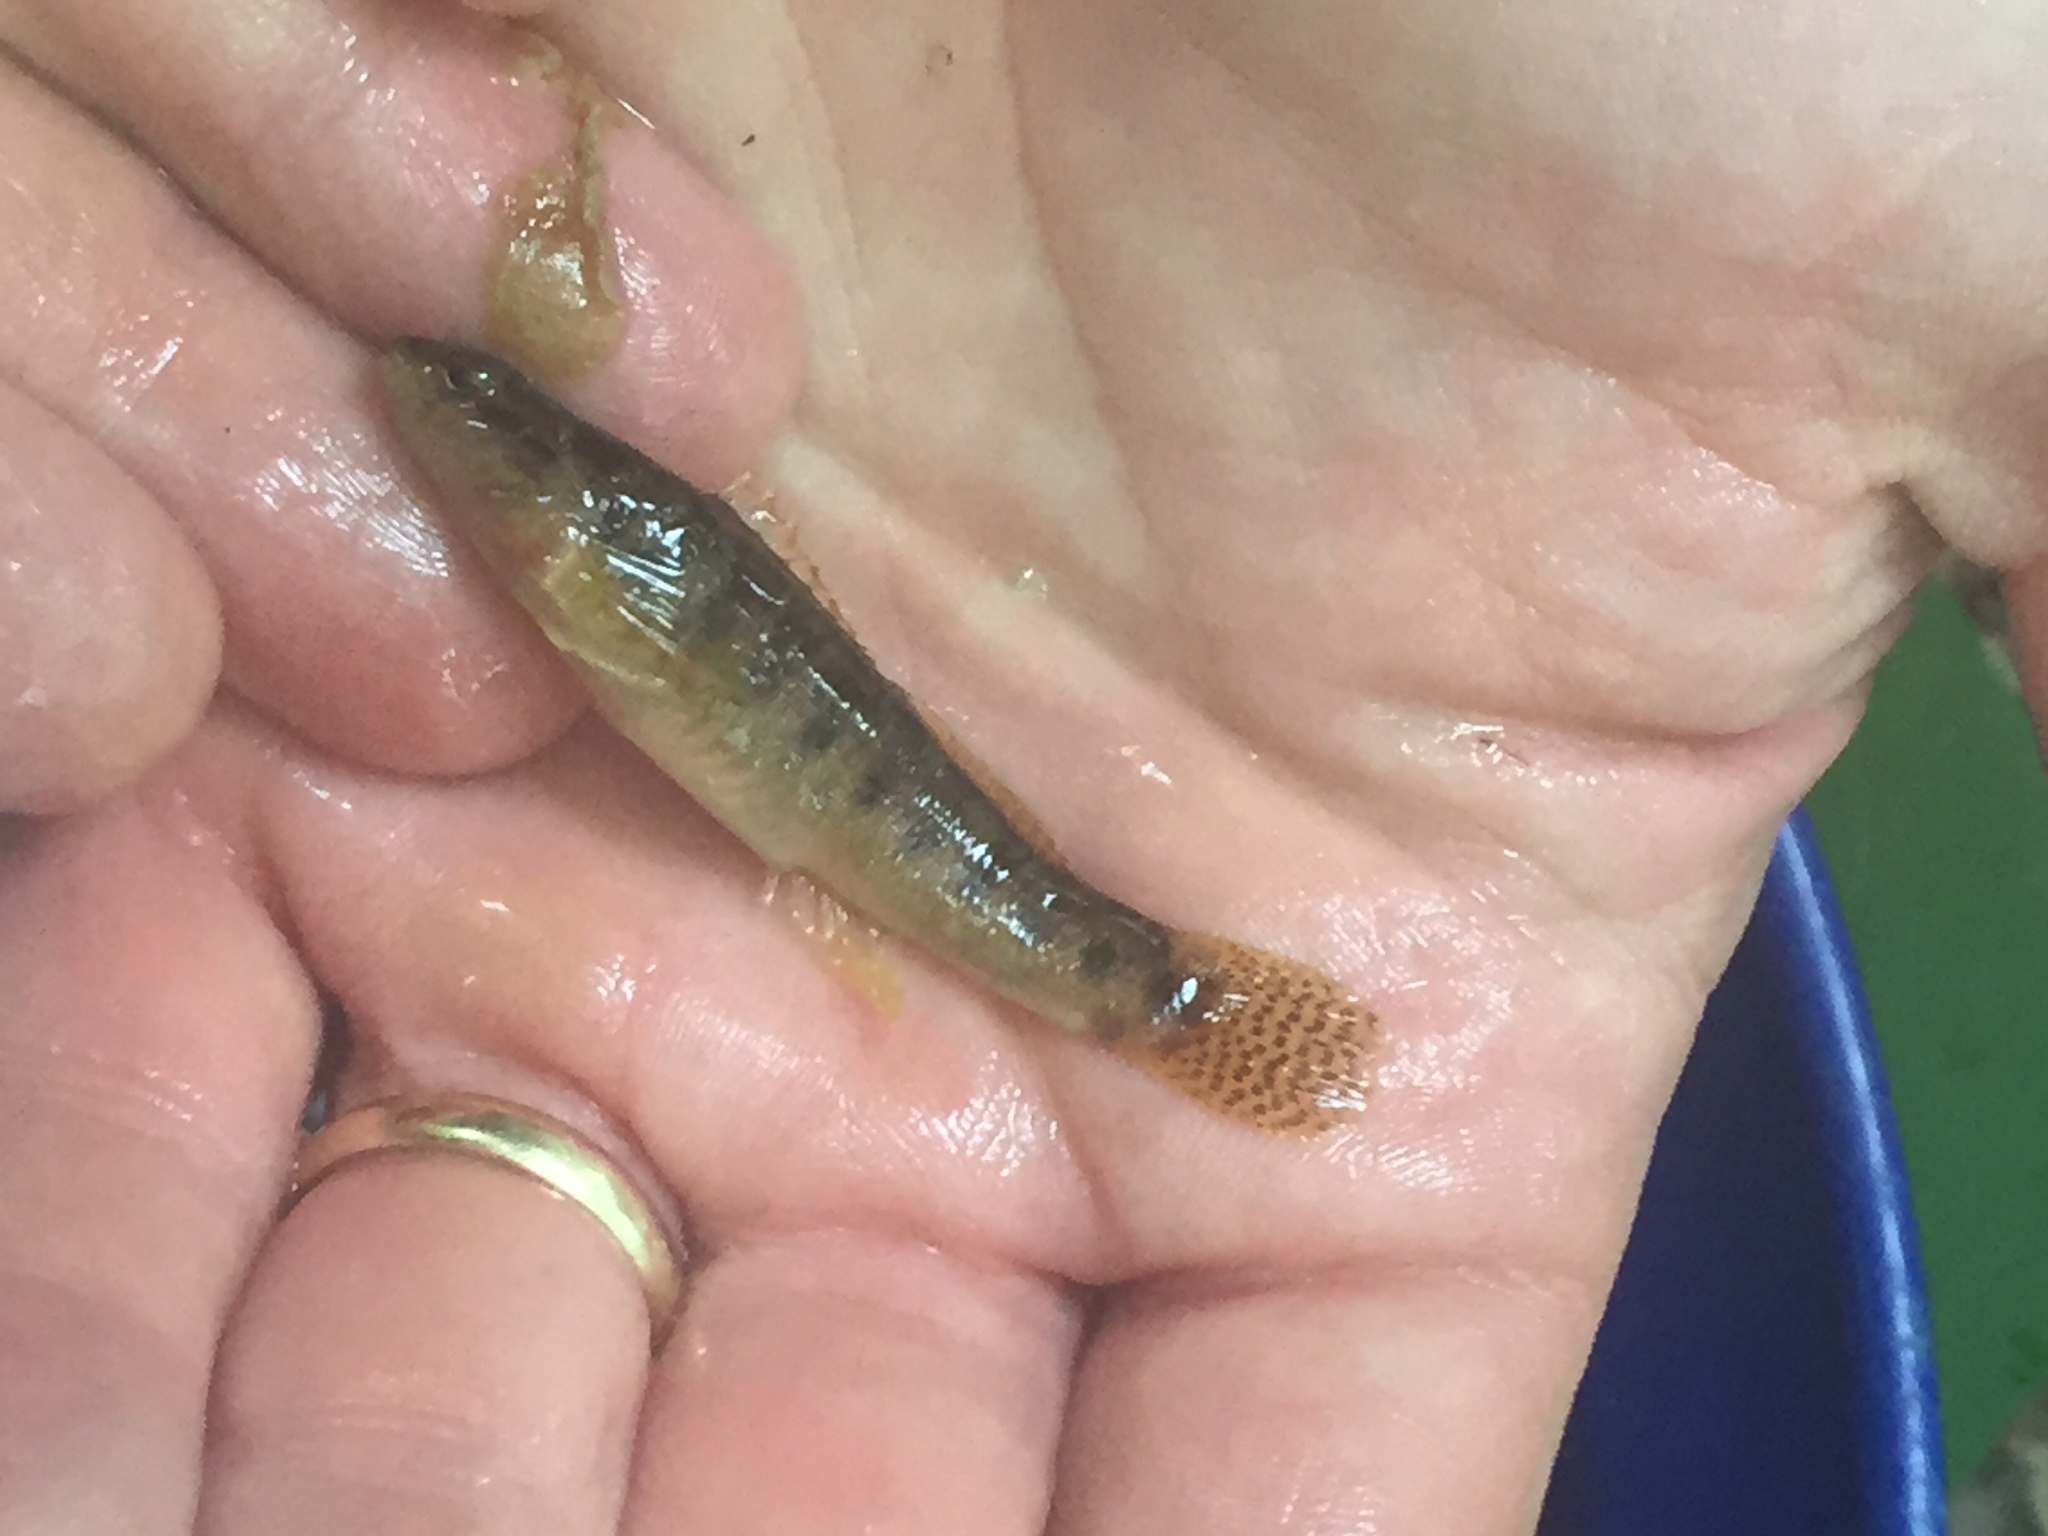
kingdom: Animalia
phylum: Chordata
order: Perciformes
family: Percidae
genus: Etheostoma
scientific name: Etheostoma flabellare
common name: Fantail darter
